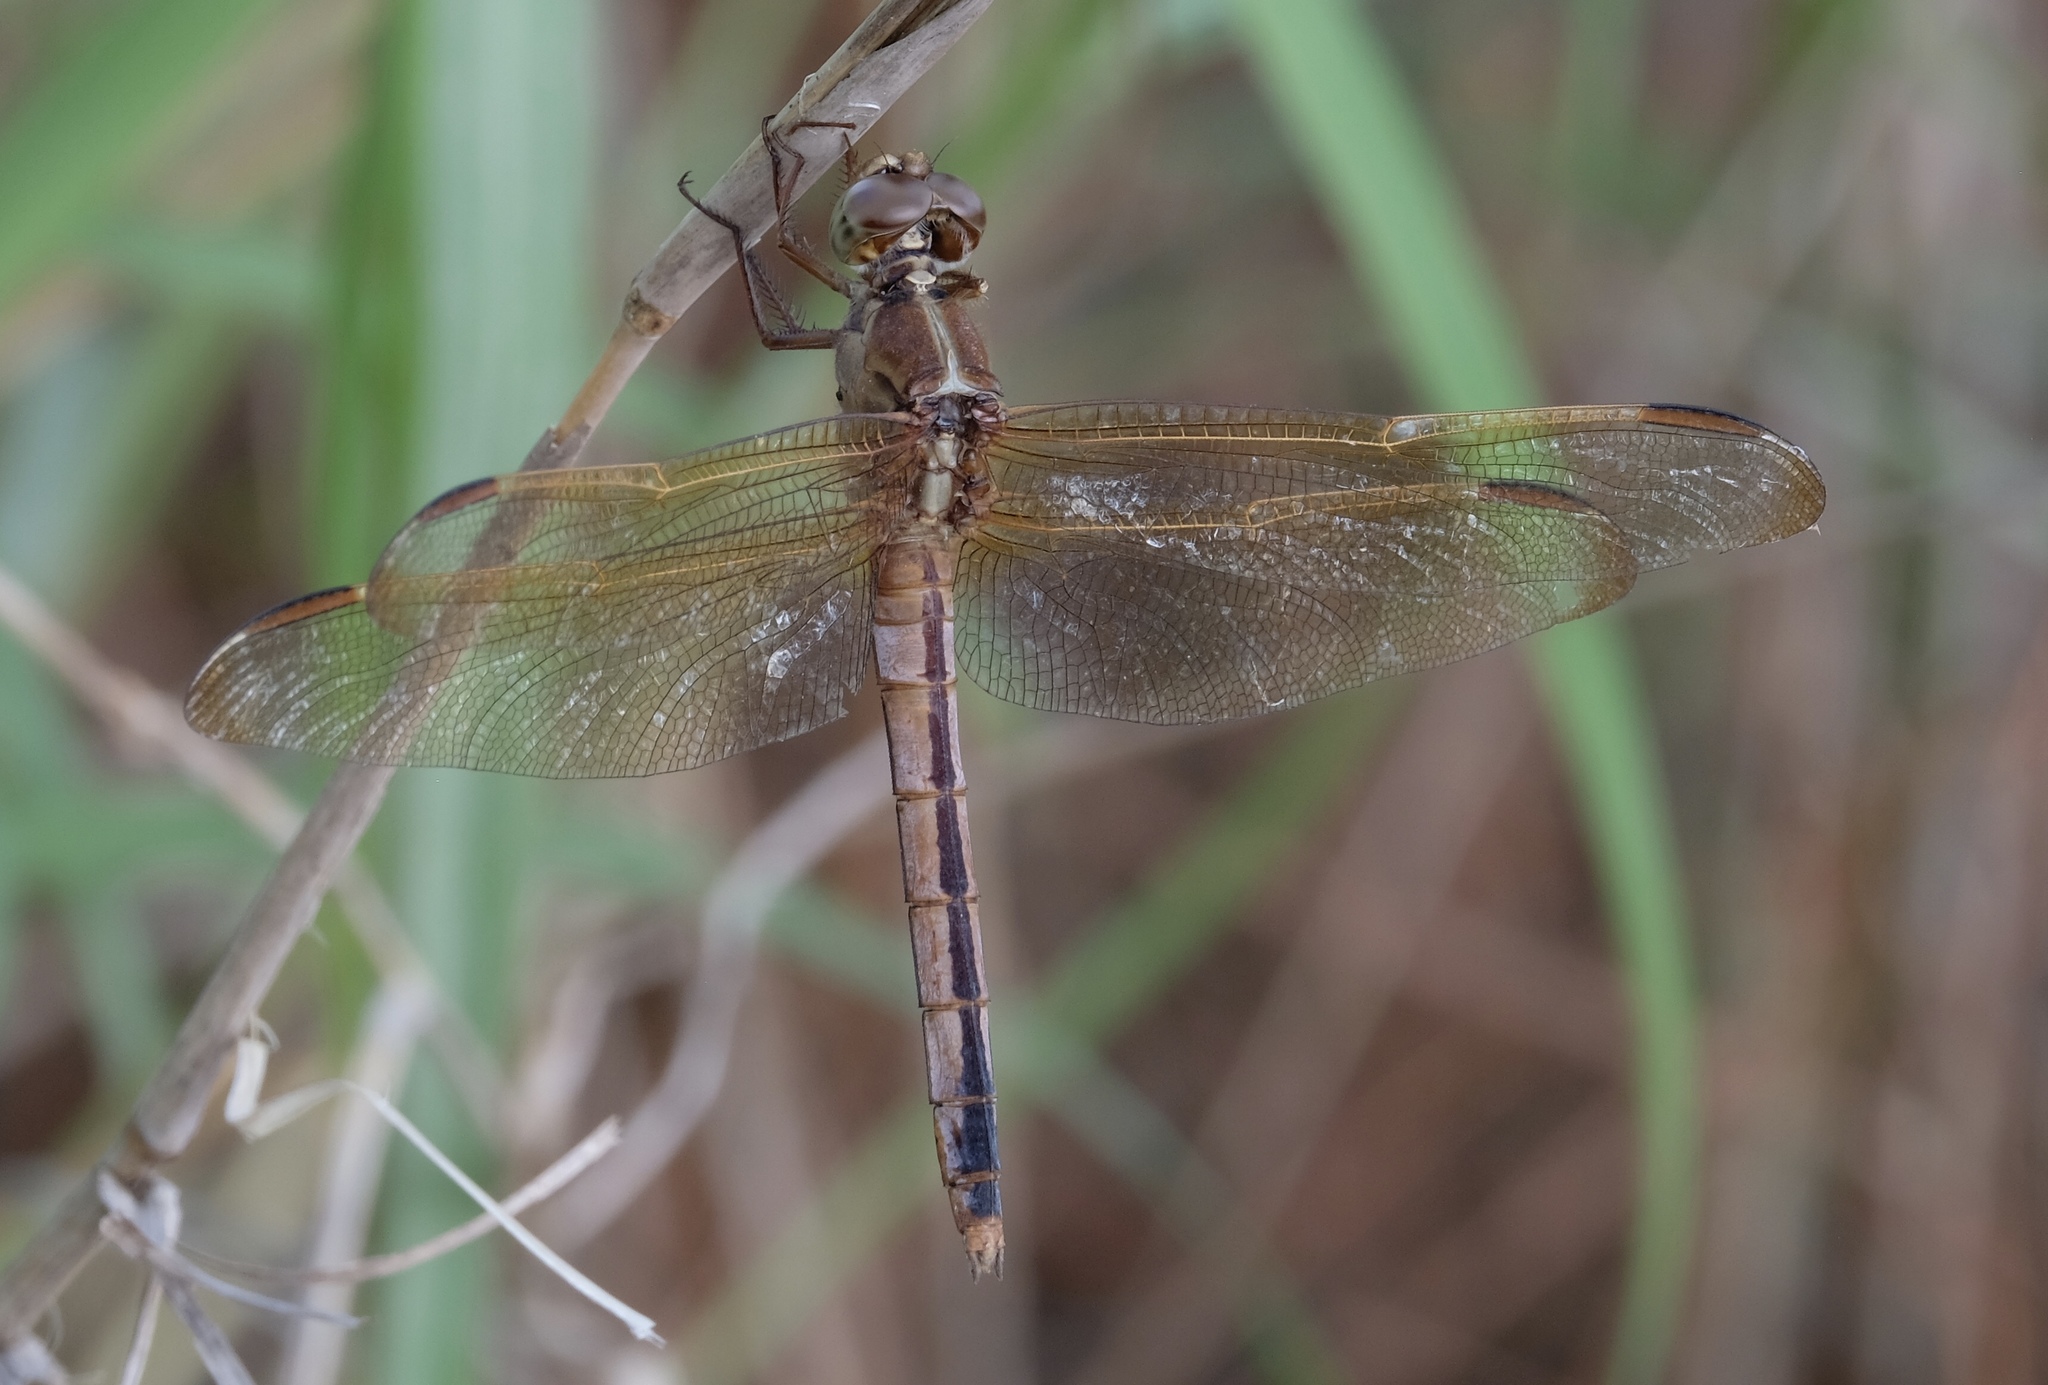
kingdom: Animalia
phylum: Arthropoda
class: Insecta
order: Odonata
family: Libellulidae
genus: Libellula
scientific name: Libellula needhami
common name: Needham's skimmer
